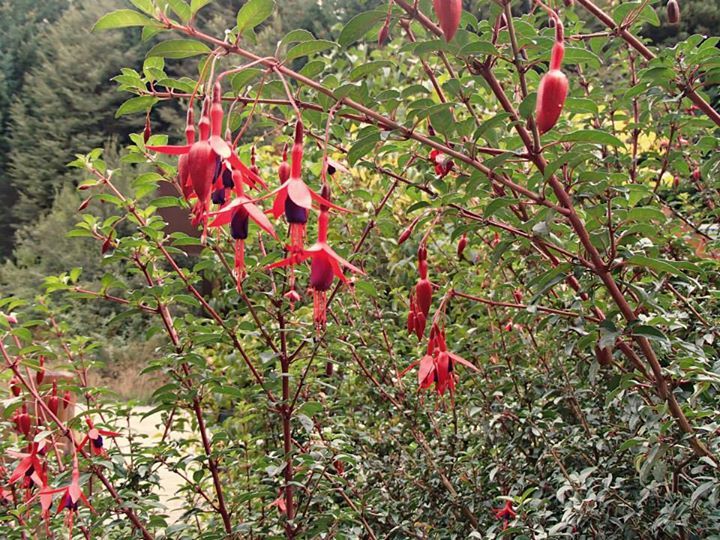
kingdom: Plantae
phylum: Tracheophyta
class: Magnoliopsida
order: Myrtales
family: Onagraceae
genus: Fuchsia
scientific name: Fuchsia magellanica
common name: Hardy fuchsia
